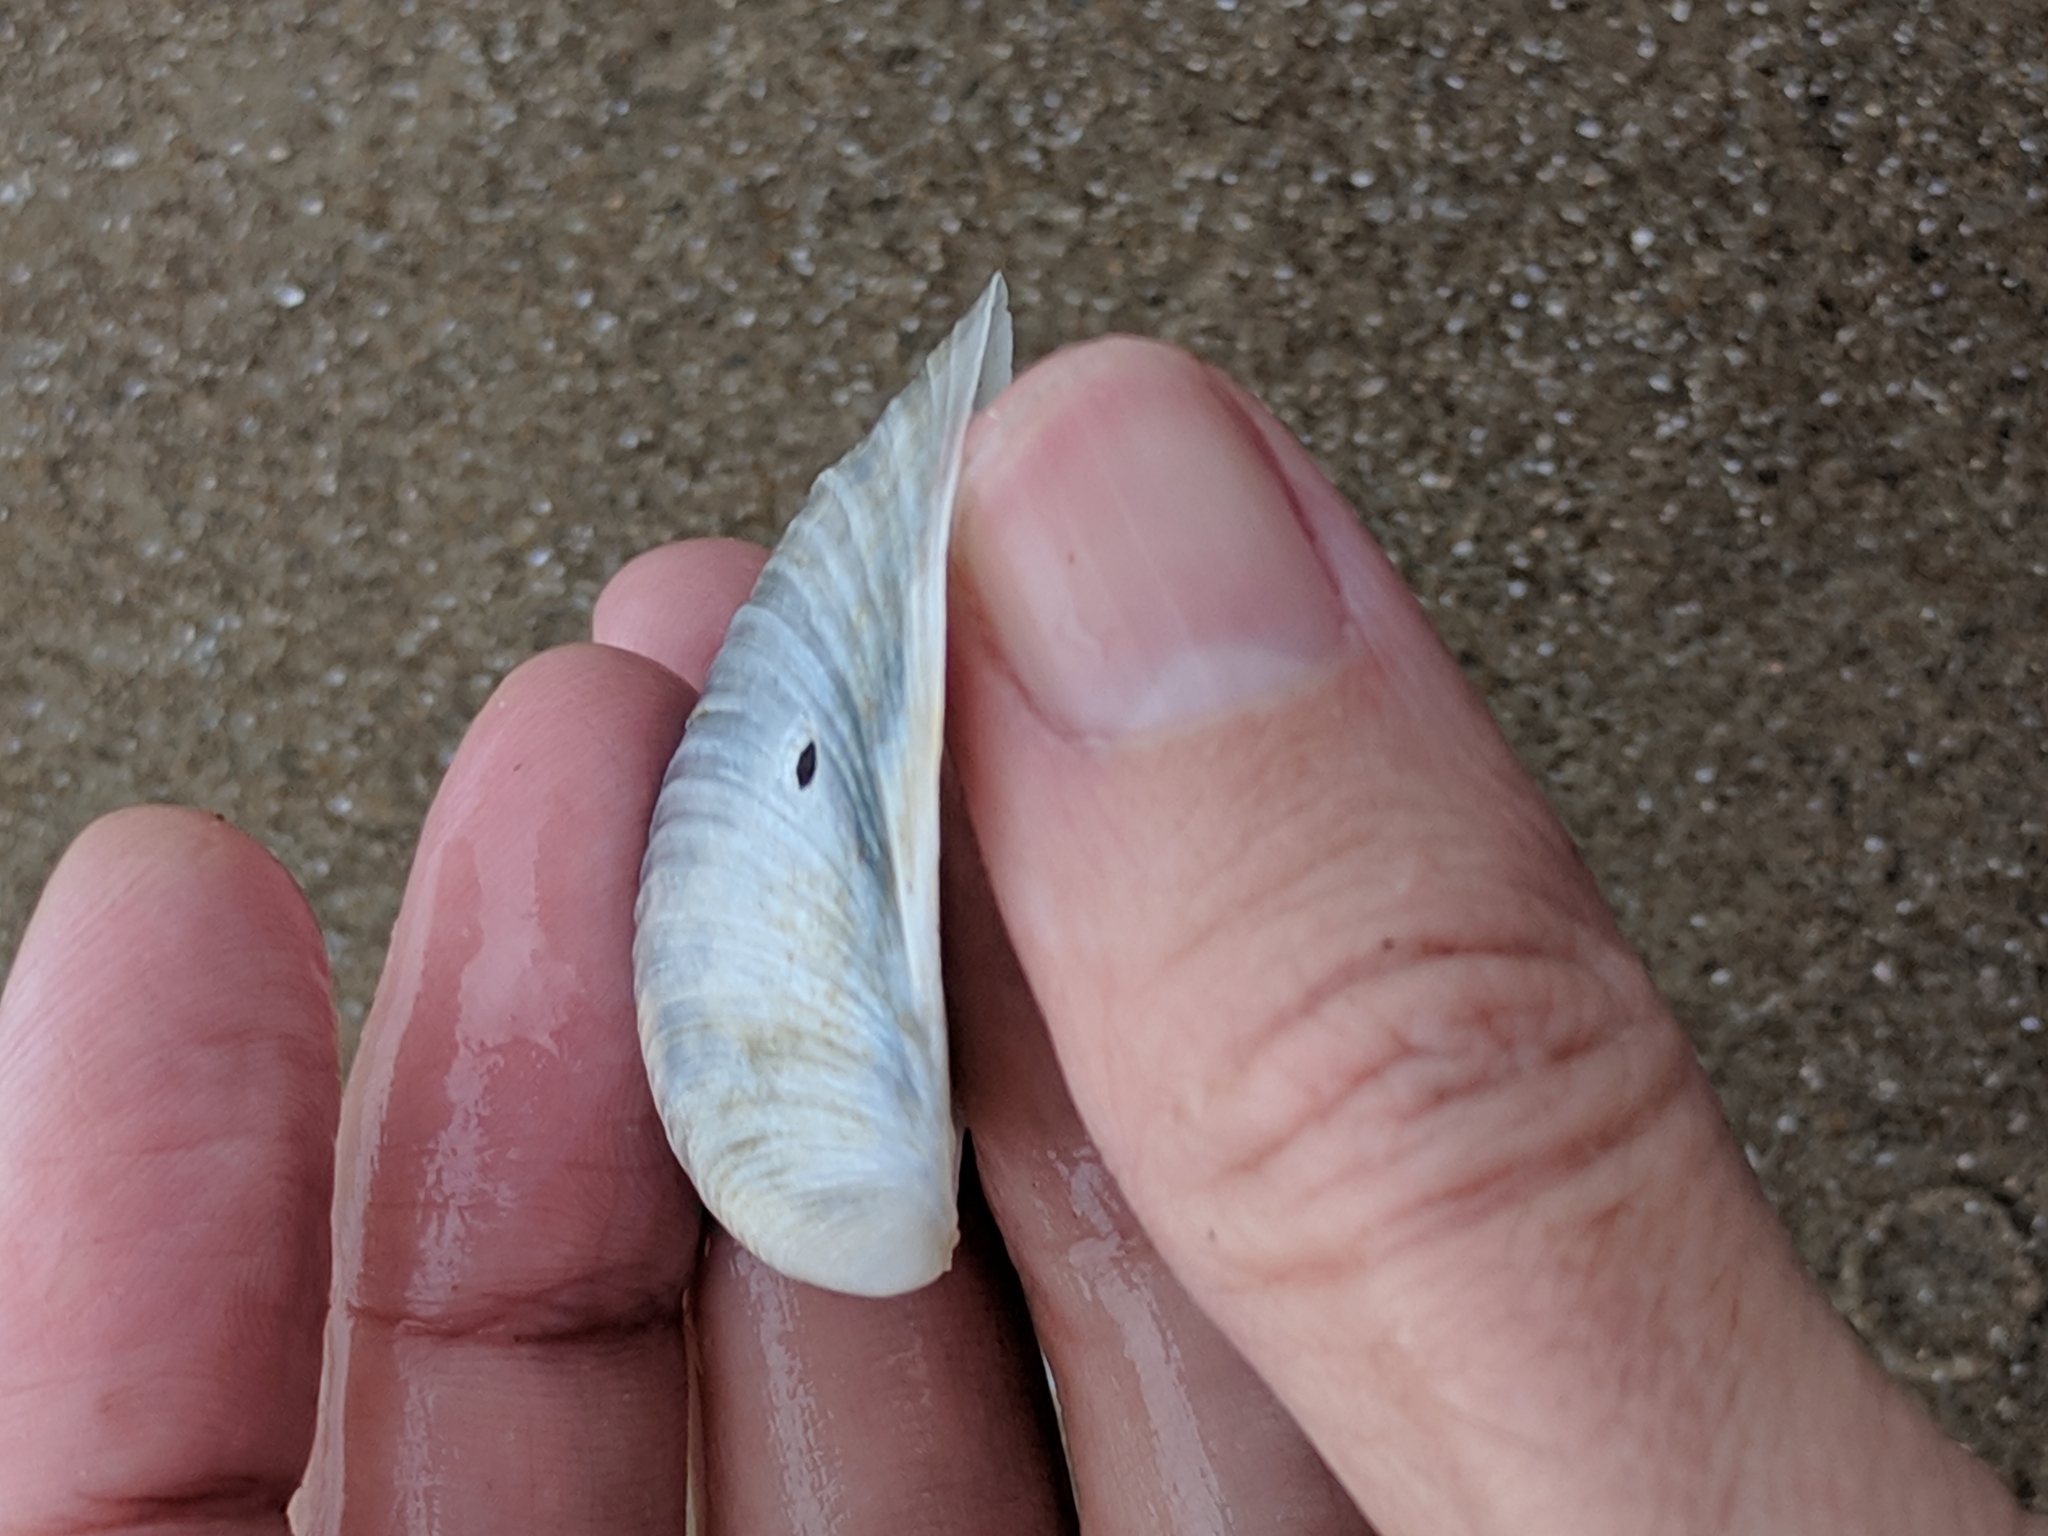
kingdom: Animalia
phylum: Mollusca
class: Bivalvia
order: Venerida
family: Anatinellidae
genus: Raeta
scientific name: Raeta plicatella
